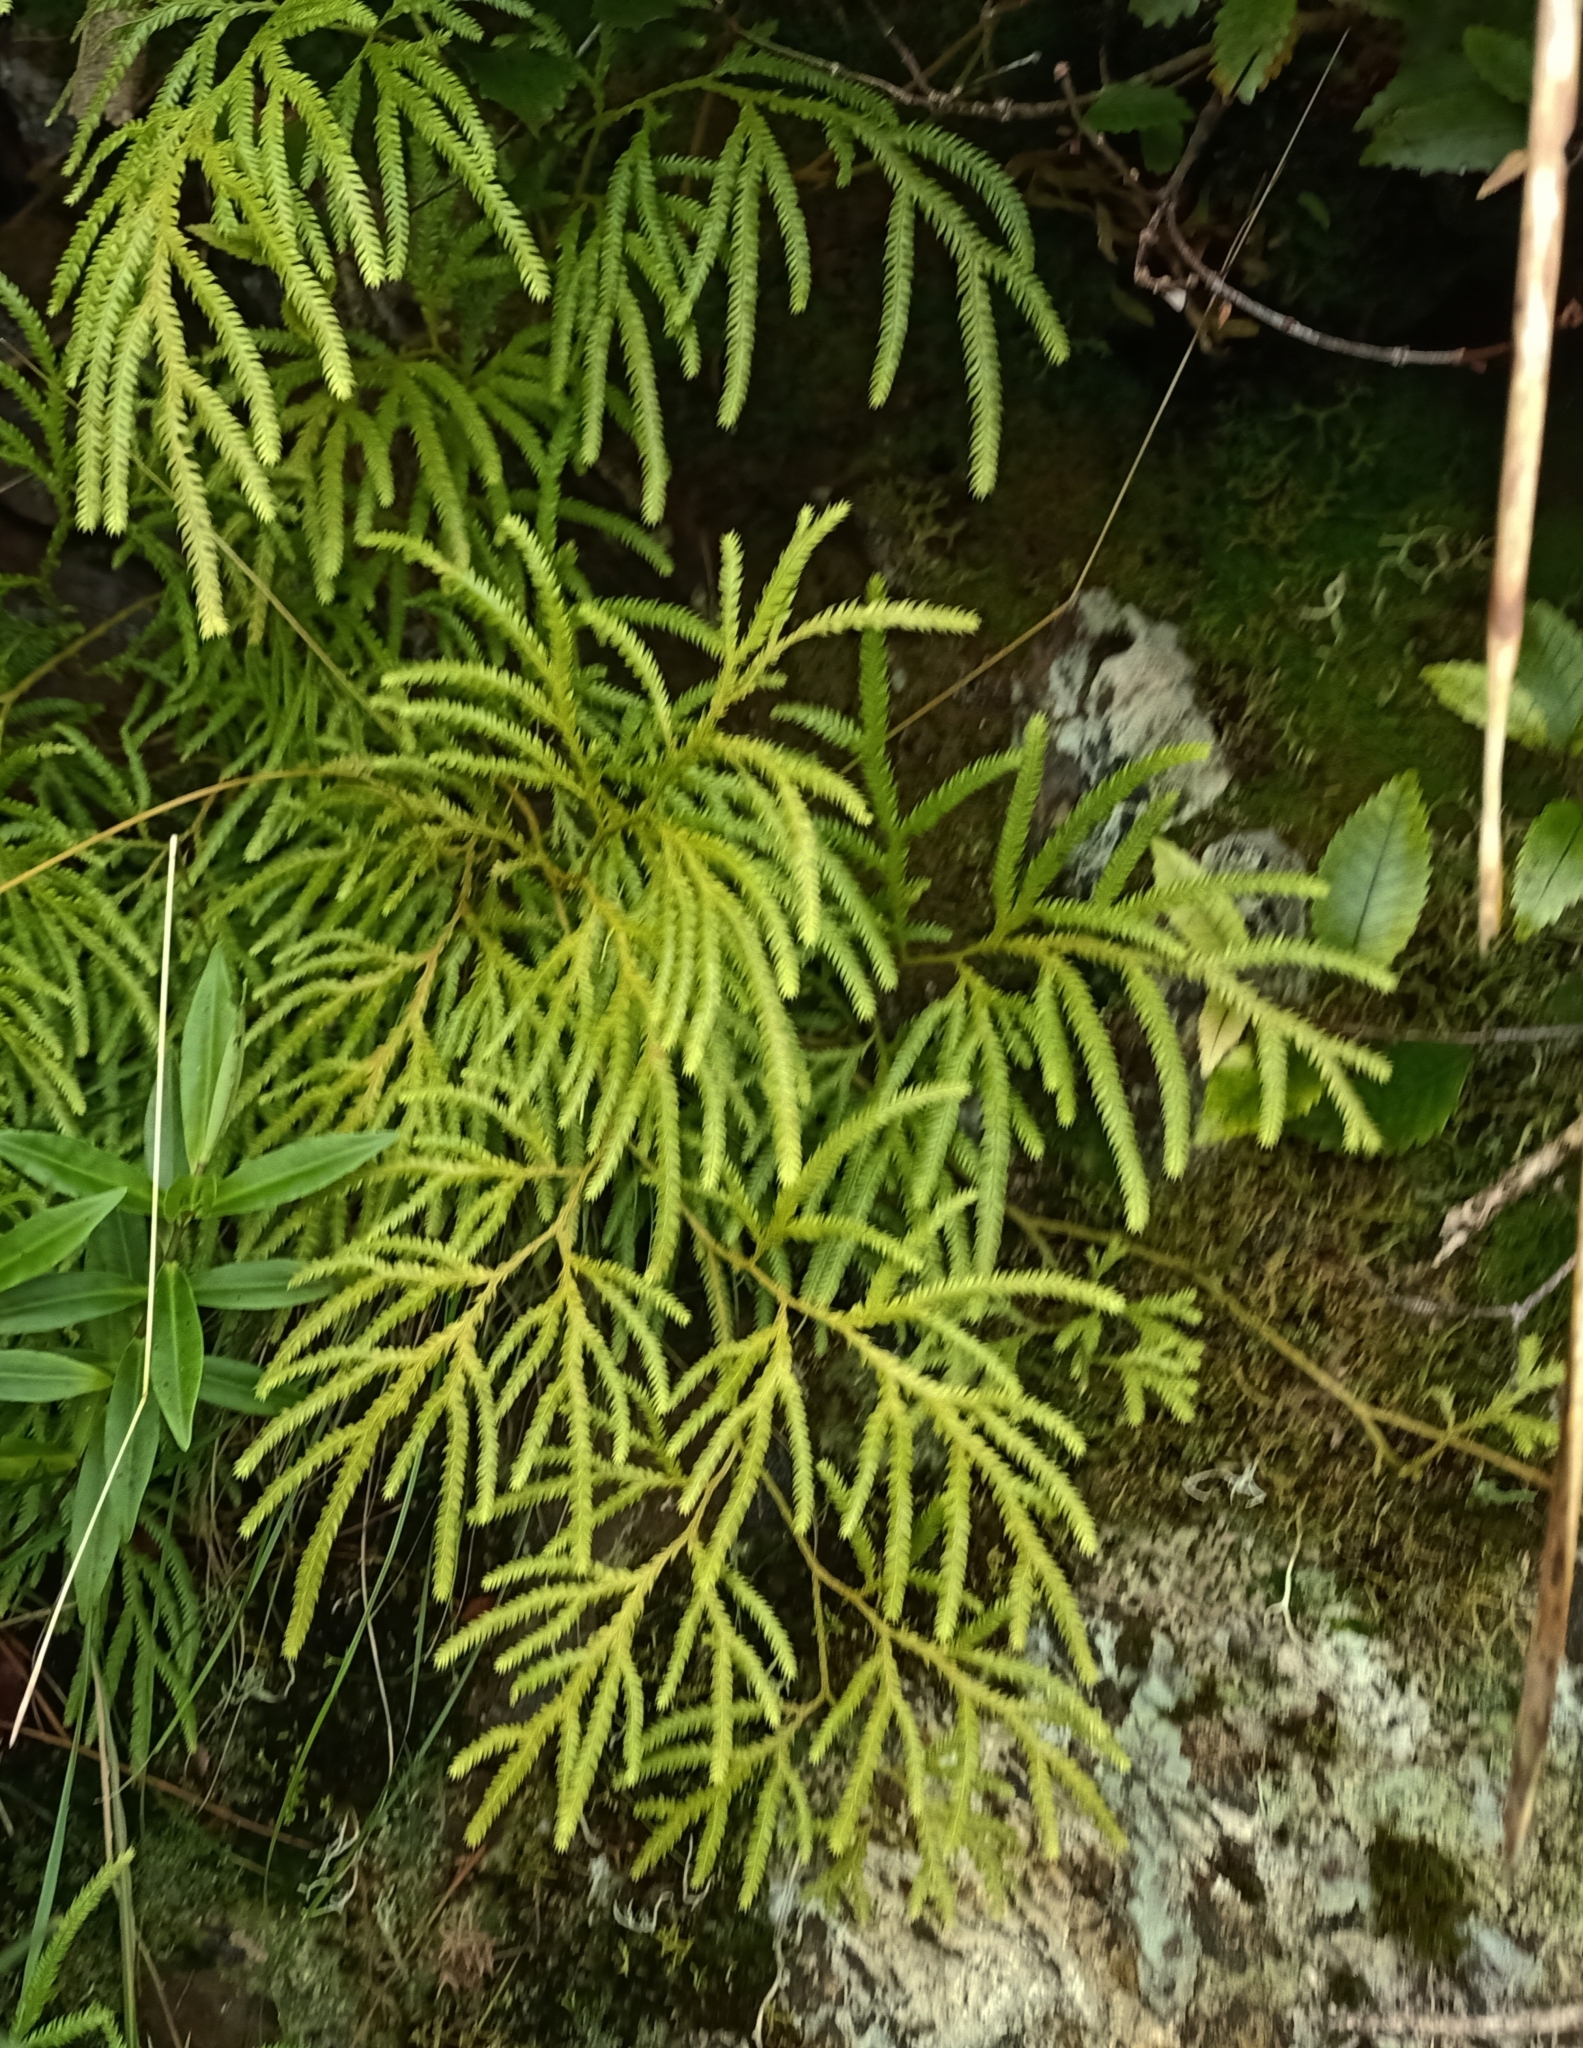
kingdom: Plantae
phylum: Tracheophyta
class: Lycopodiopsida
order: Lycopodiales
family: Lycopodiaceae
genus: Lycopodium
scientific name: Lycopodium volubile
